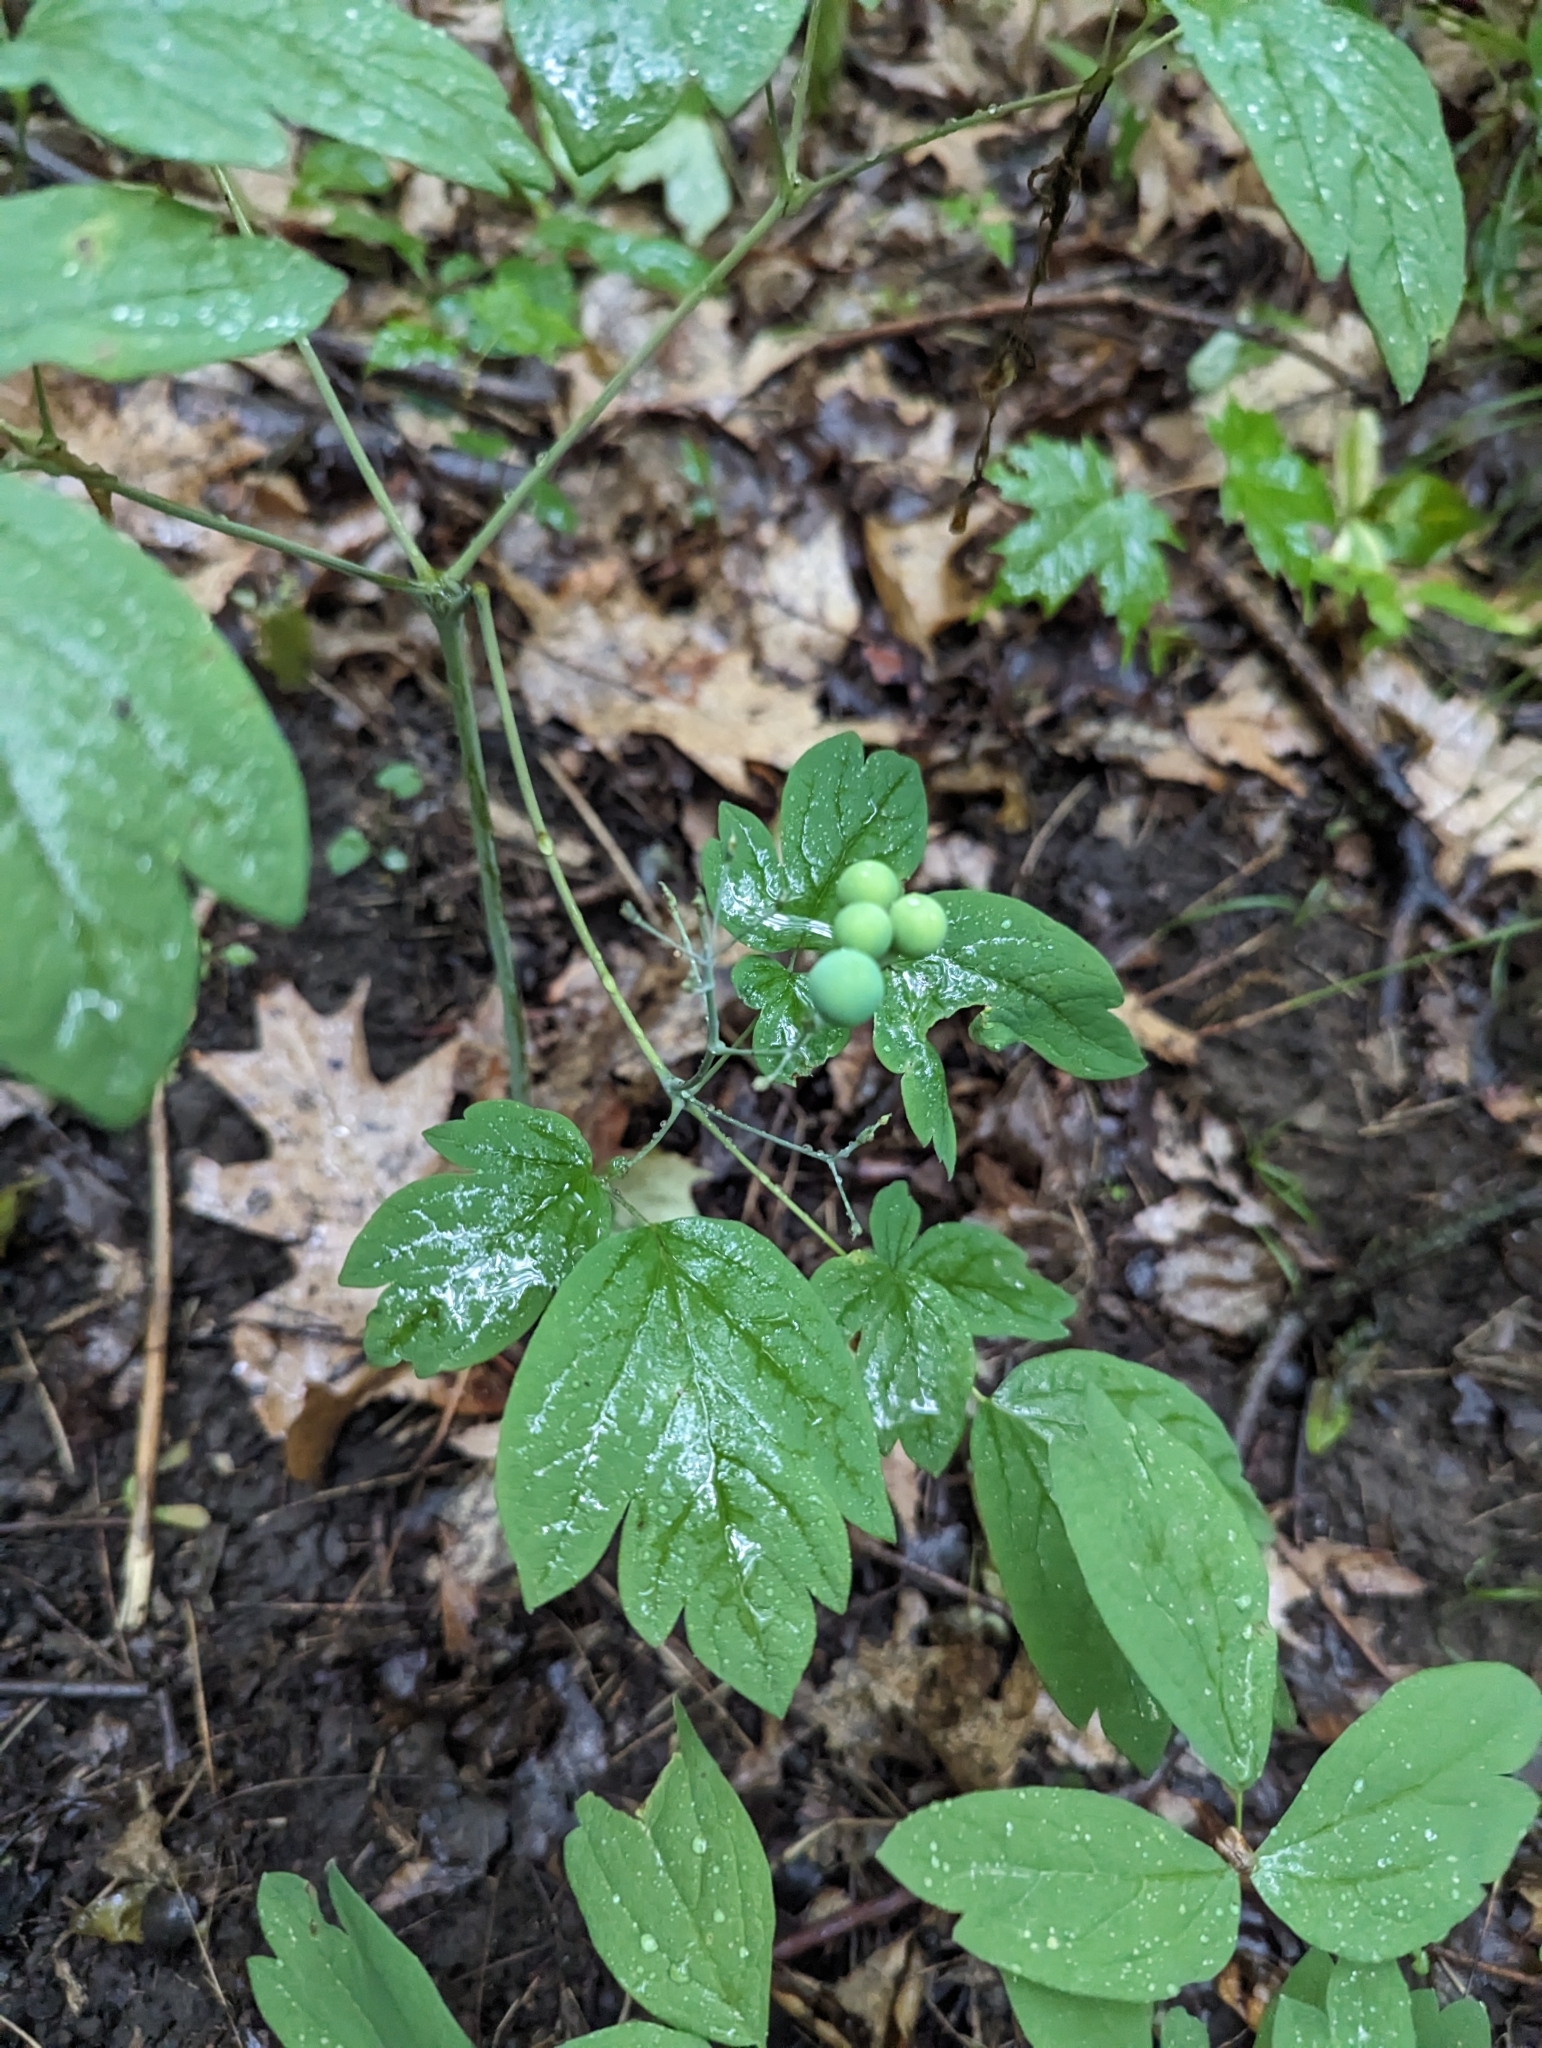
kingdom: Plantae
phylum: Tracheophyta
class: Magnoliopsida
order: Ranunculales
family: Berberidaceae
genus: Caulophyllum
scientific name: Caulophyllum thalictroides
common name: Blue cohosh
